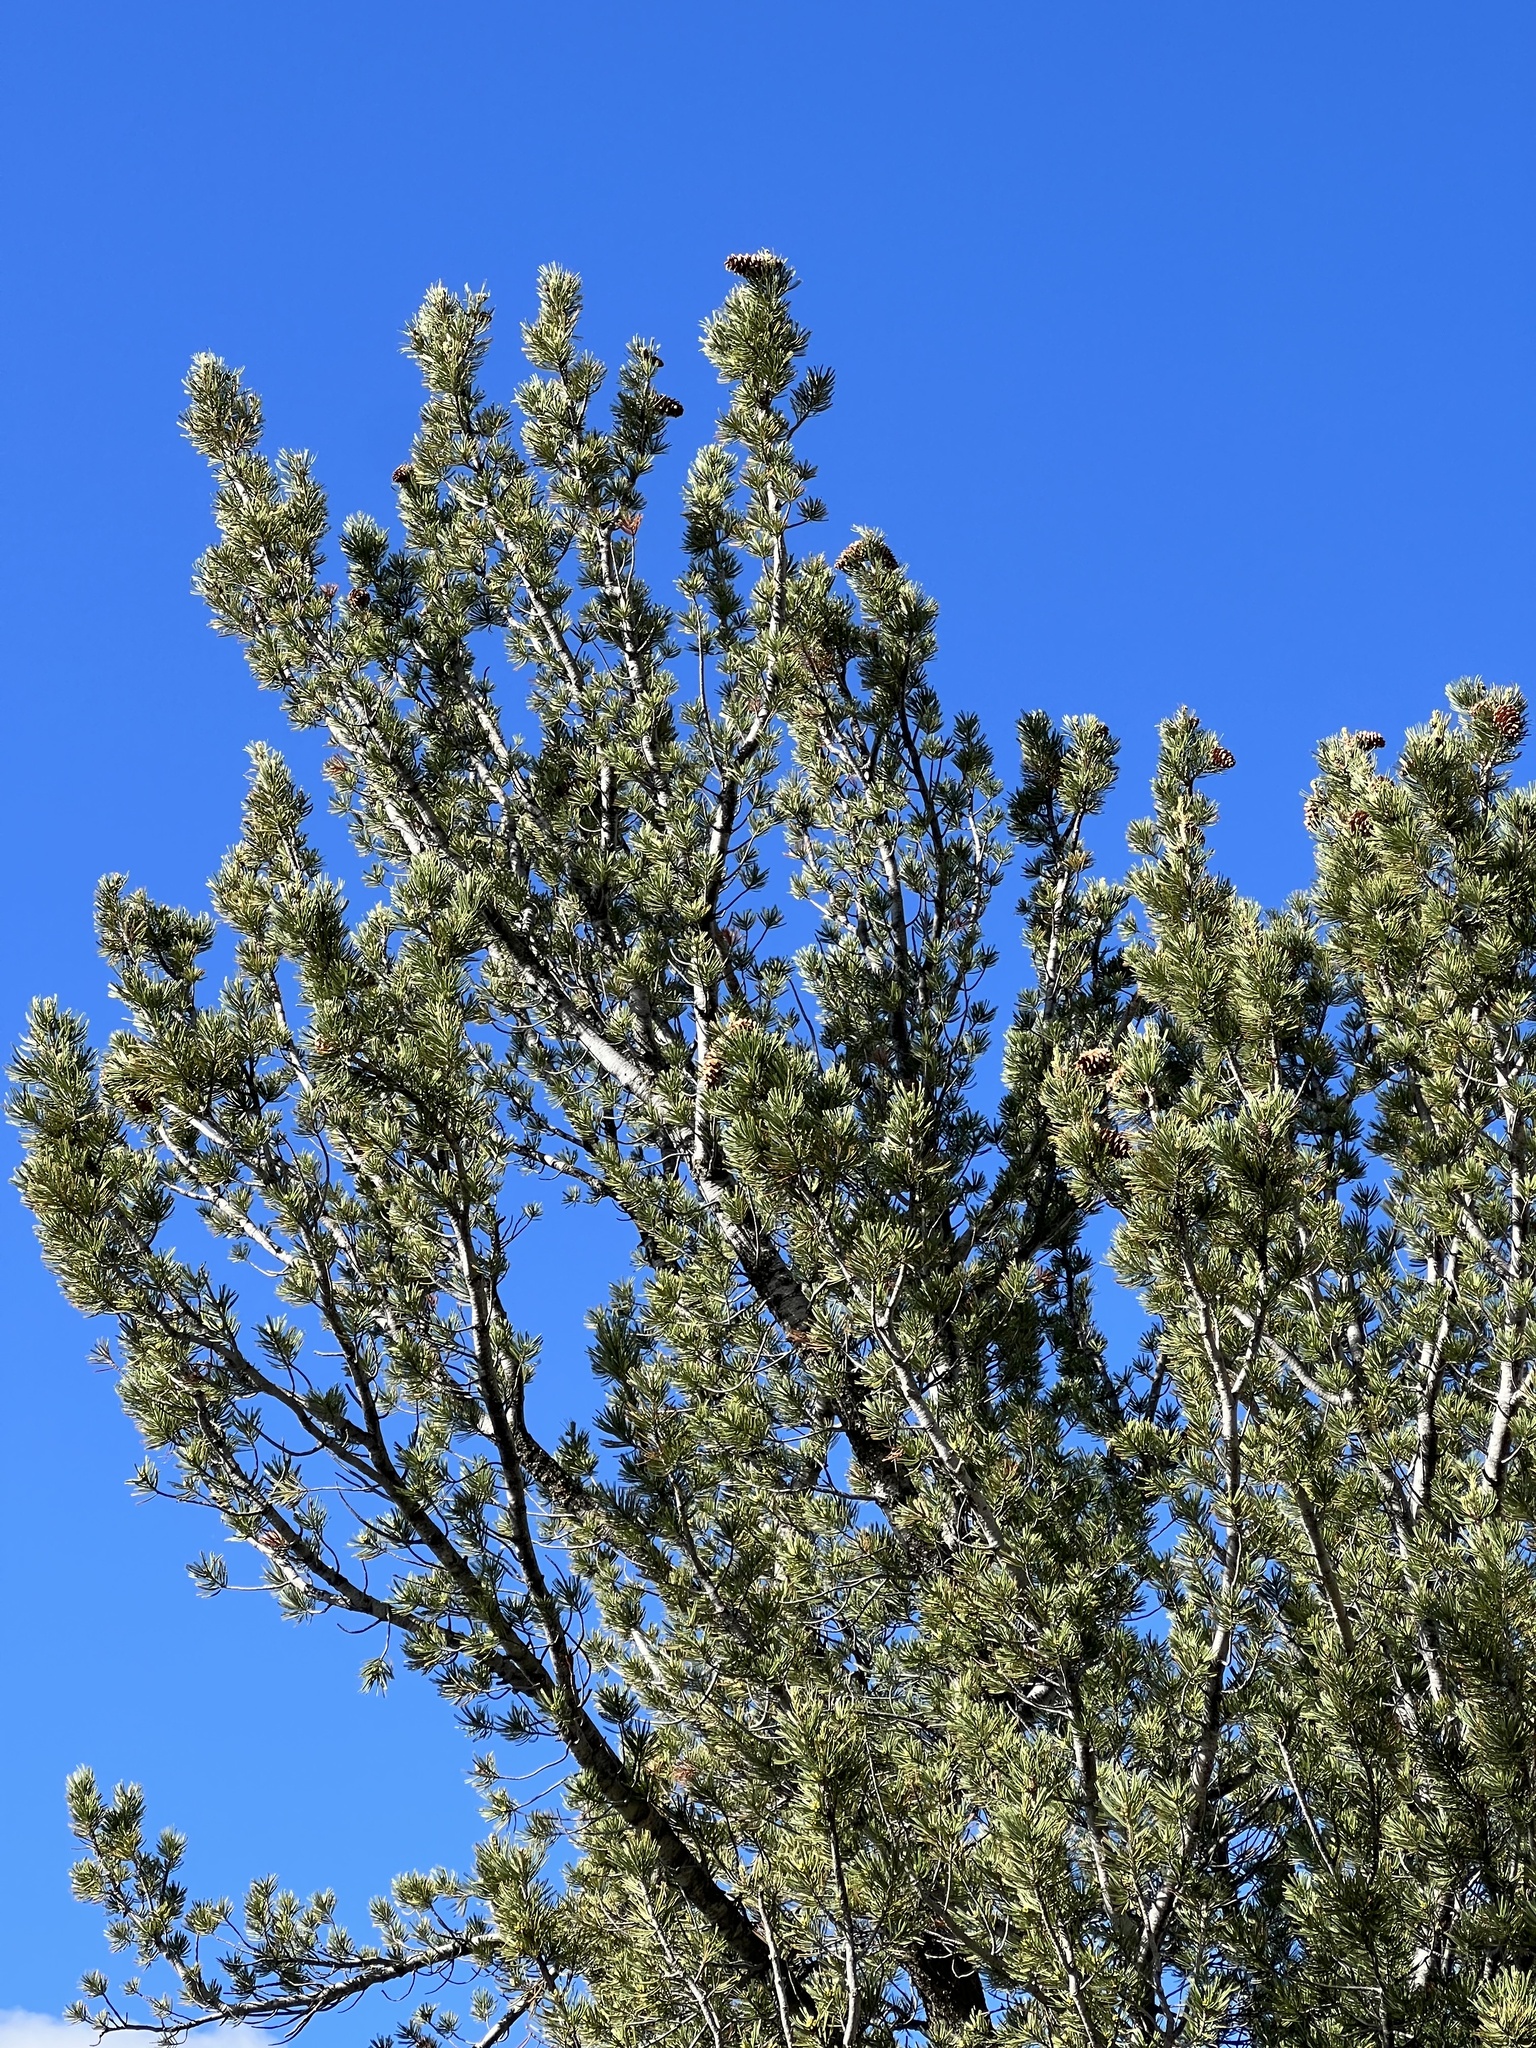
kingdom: Plantae
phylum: Tracheophyta
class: Pinopsida
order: Pinales
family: Pinaceae
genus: Pinus
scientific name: Pinus flexilis
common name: Limber pine
